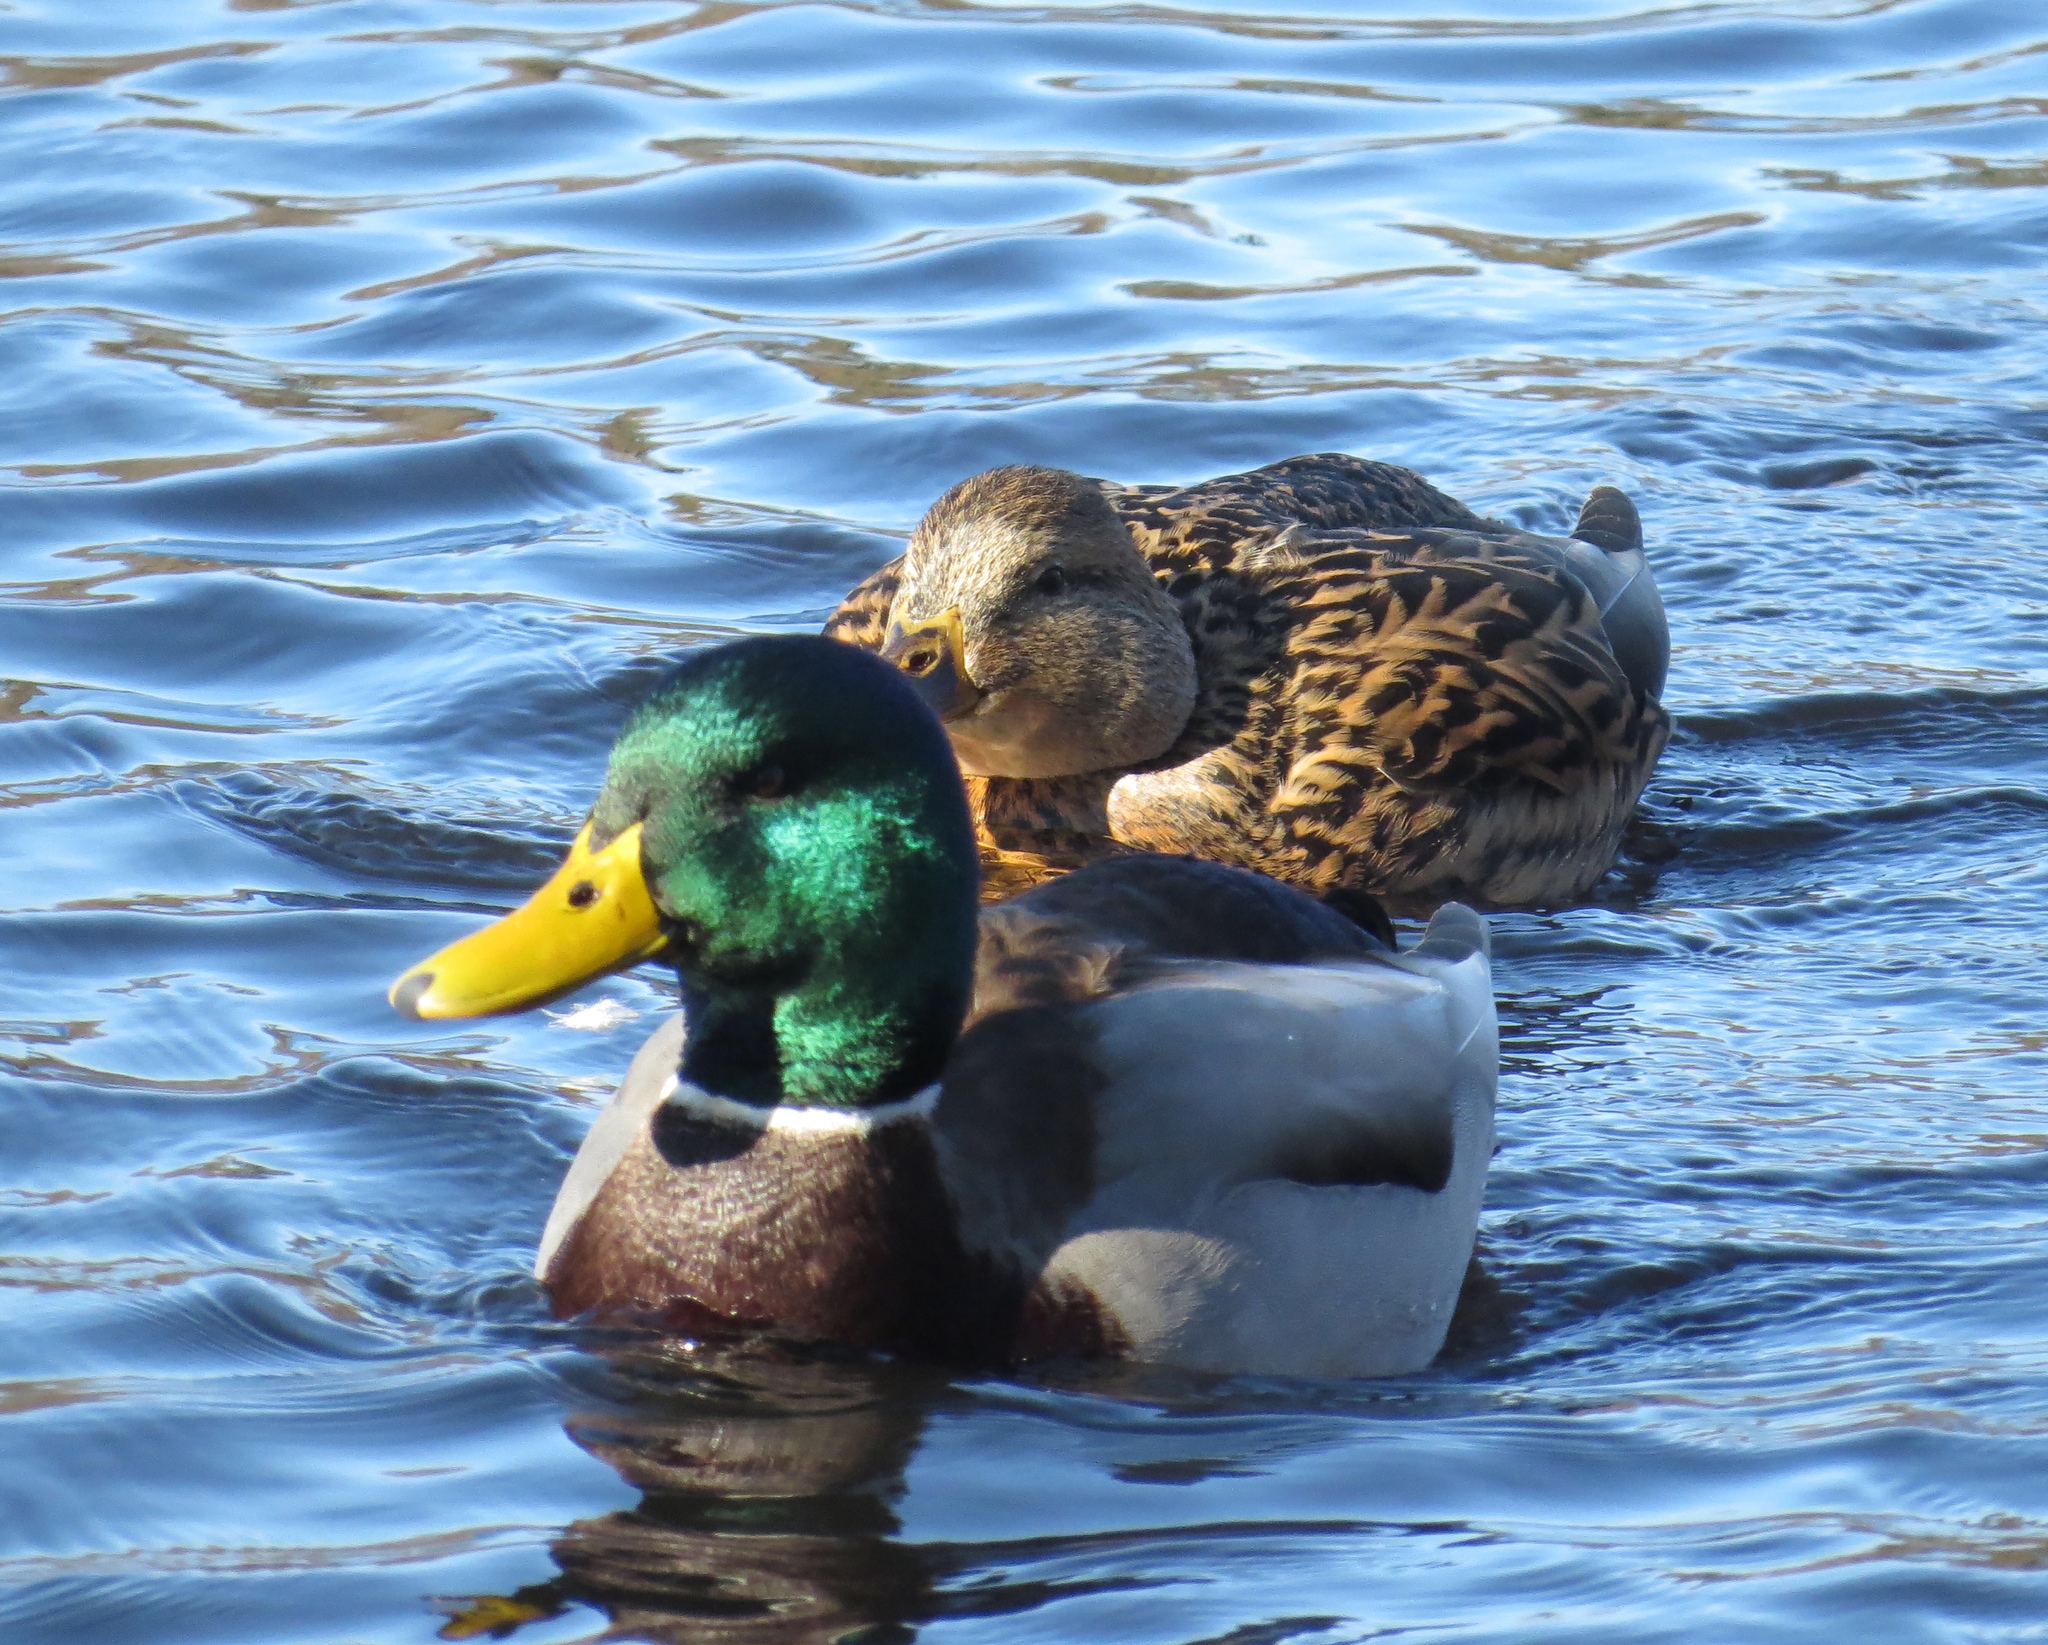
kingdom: Animalia
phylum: Chordata
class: Aves
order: Anseriformes
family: Anatidae
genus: Anas
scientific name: Anas platyrhynchos
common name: Mallard
